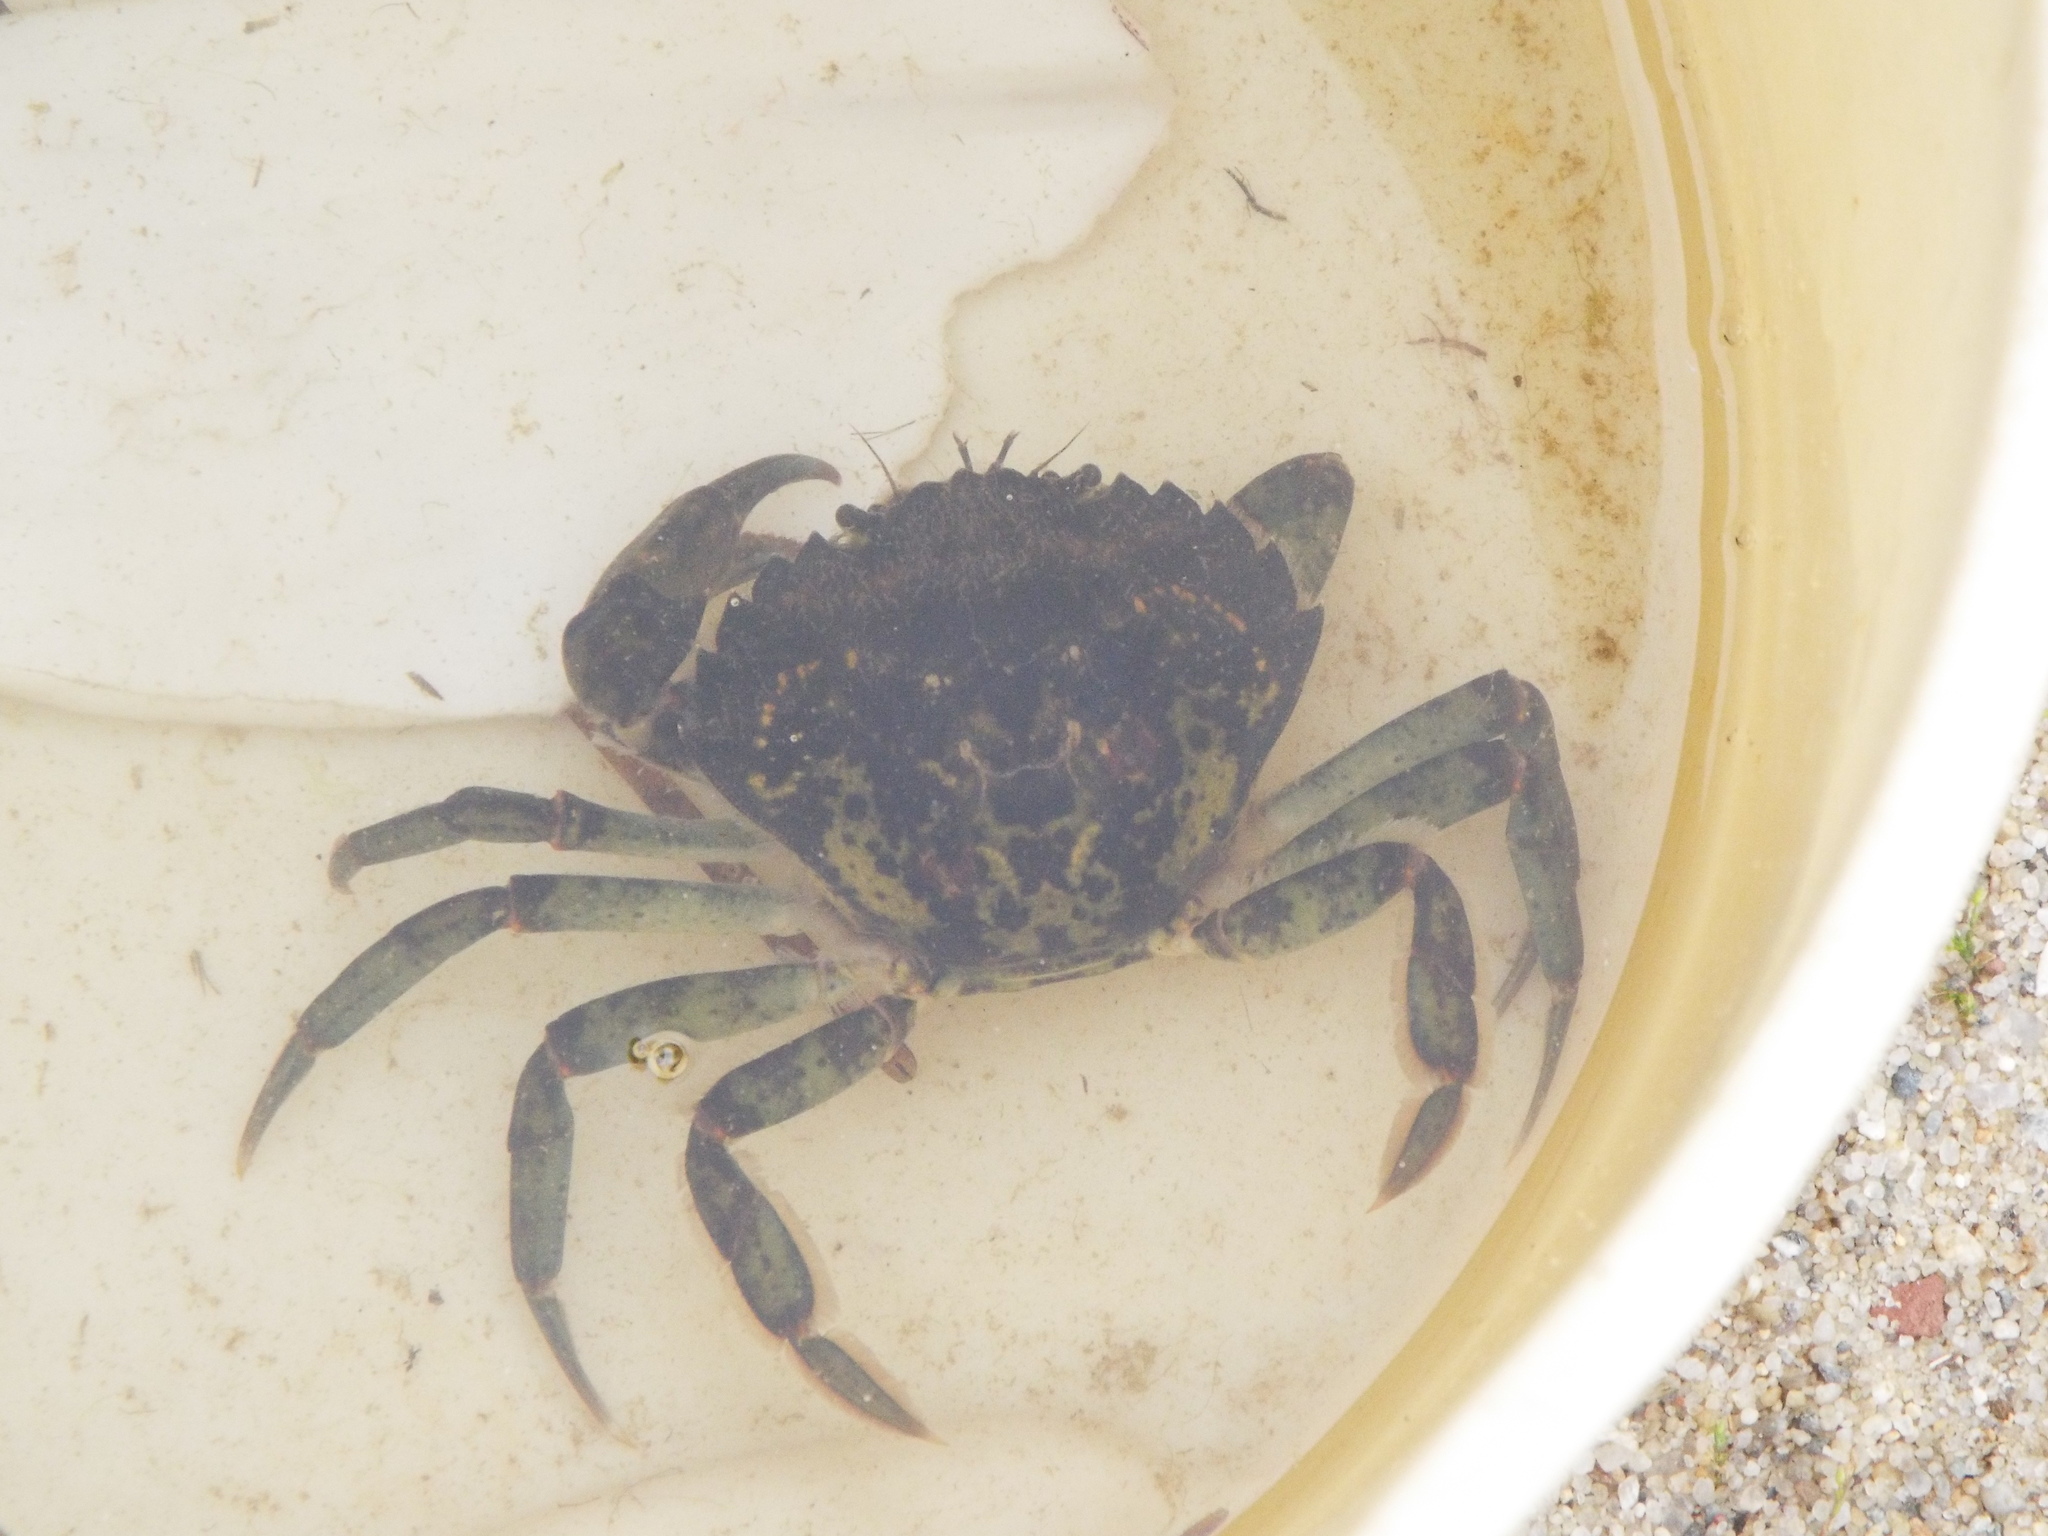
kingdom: Animalia
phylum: Arthropoda
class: Malacostraca
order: Decapoda
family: Carcinidae
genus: Carcinus
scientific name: Carcinus maenas
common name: European green crab
